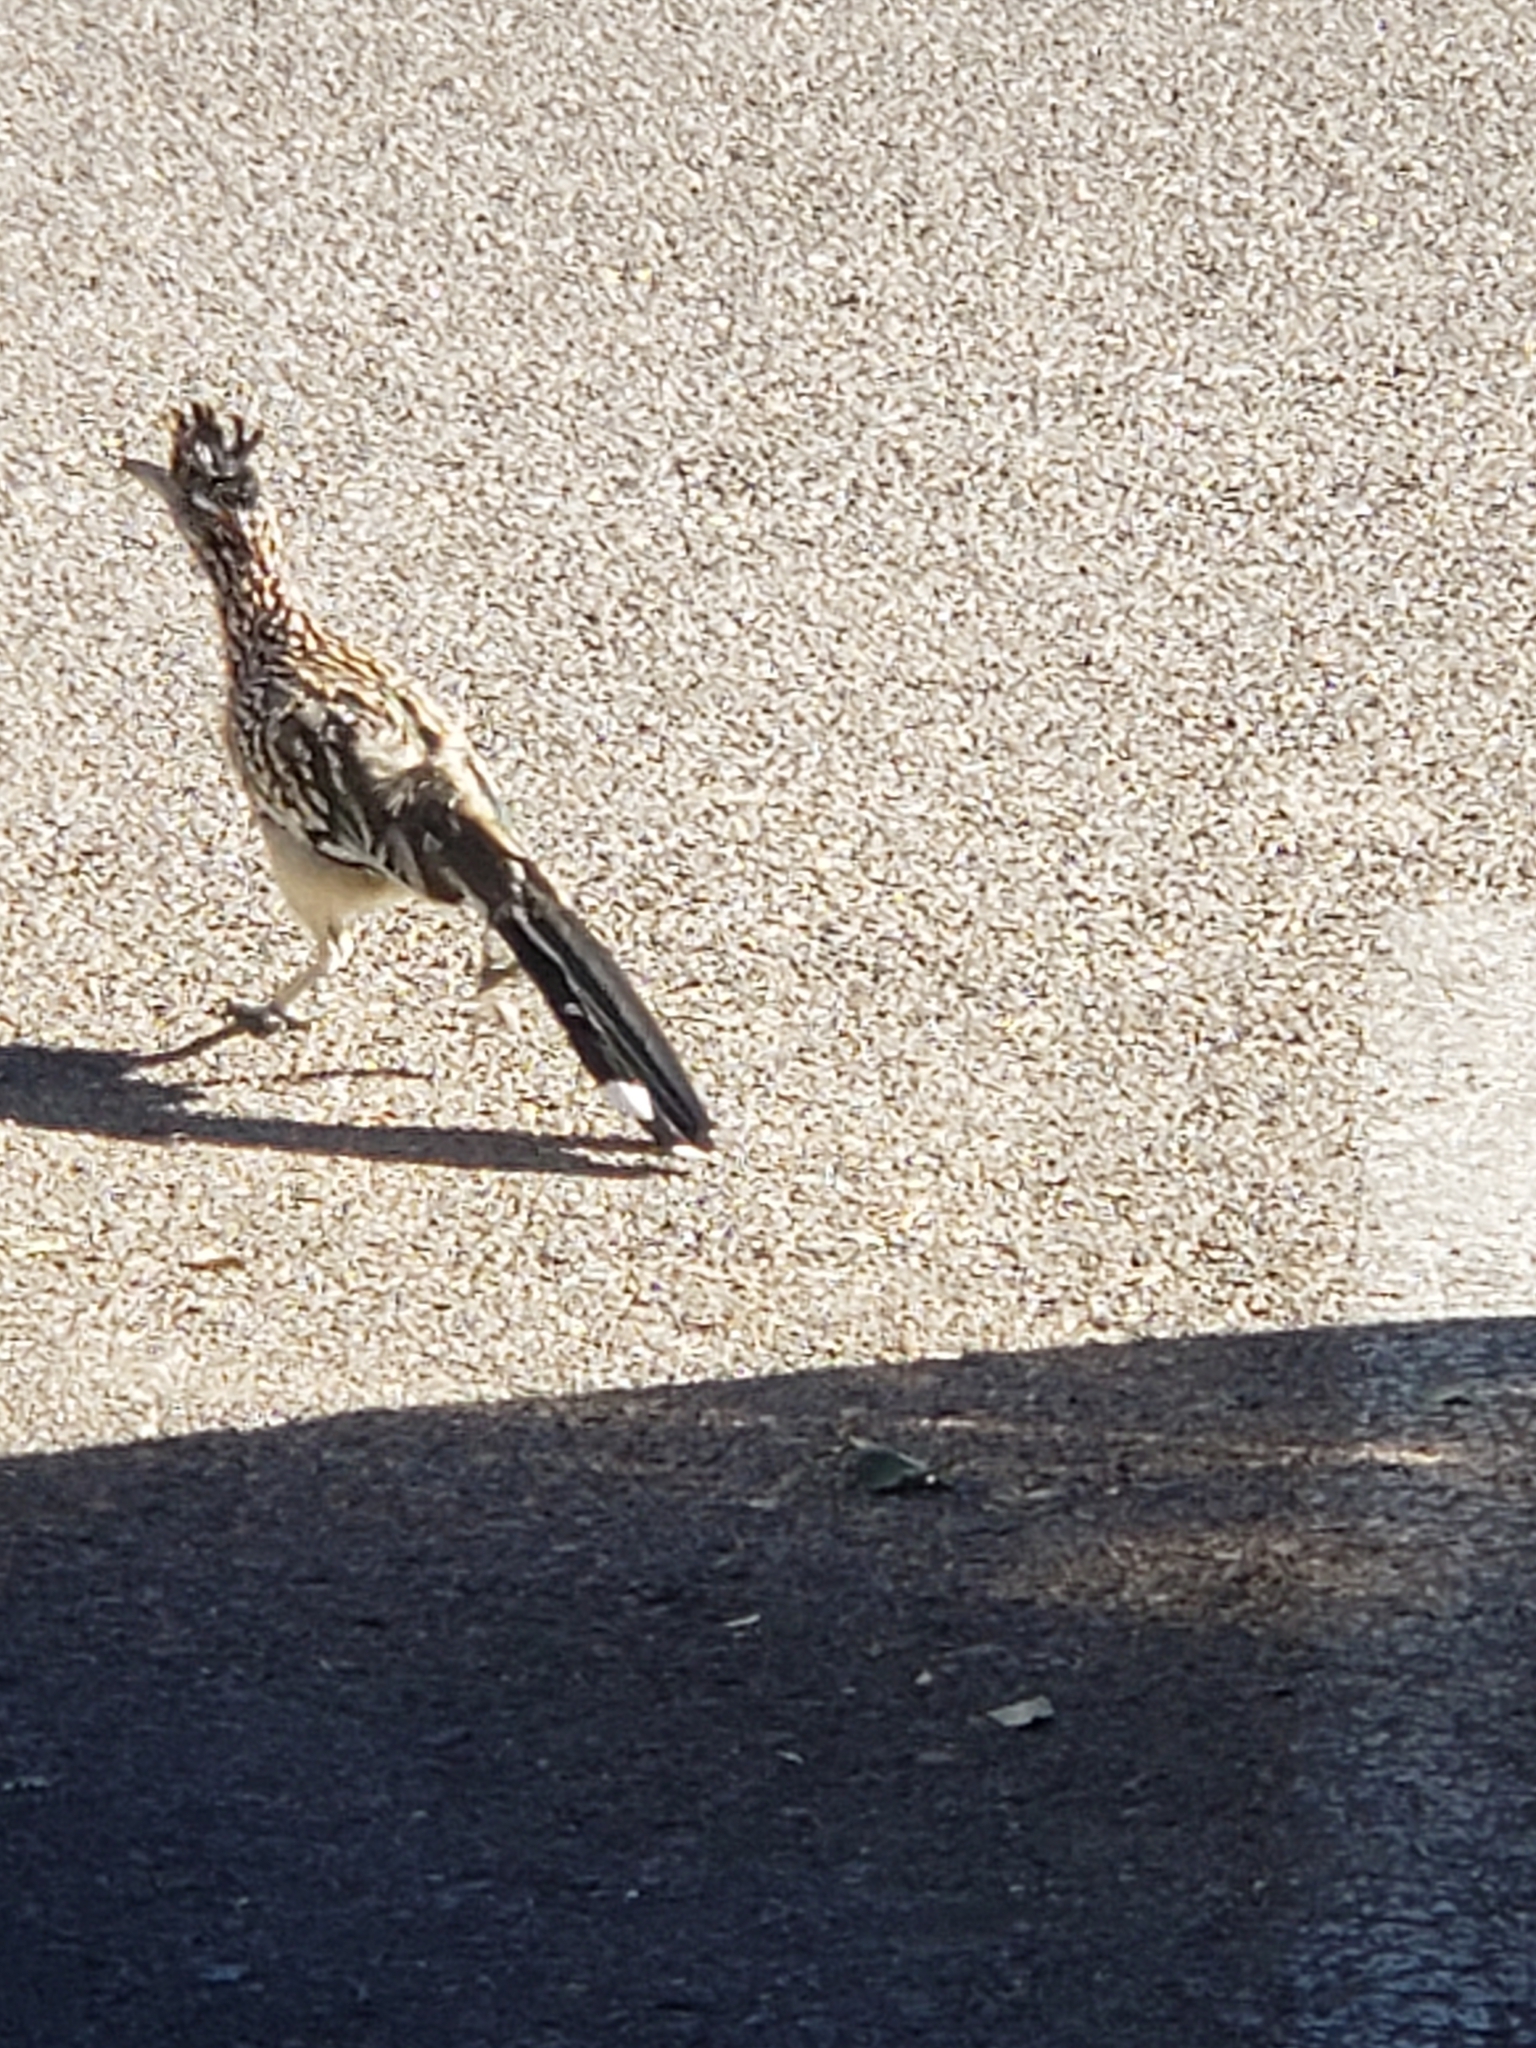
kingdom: Animalia
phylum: Chordata
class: Aves
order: Cuculiformes
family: Cuculidae
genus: Geococcyx
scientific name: Geococcyx californianus
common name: Greater roadrunner
